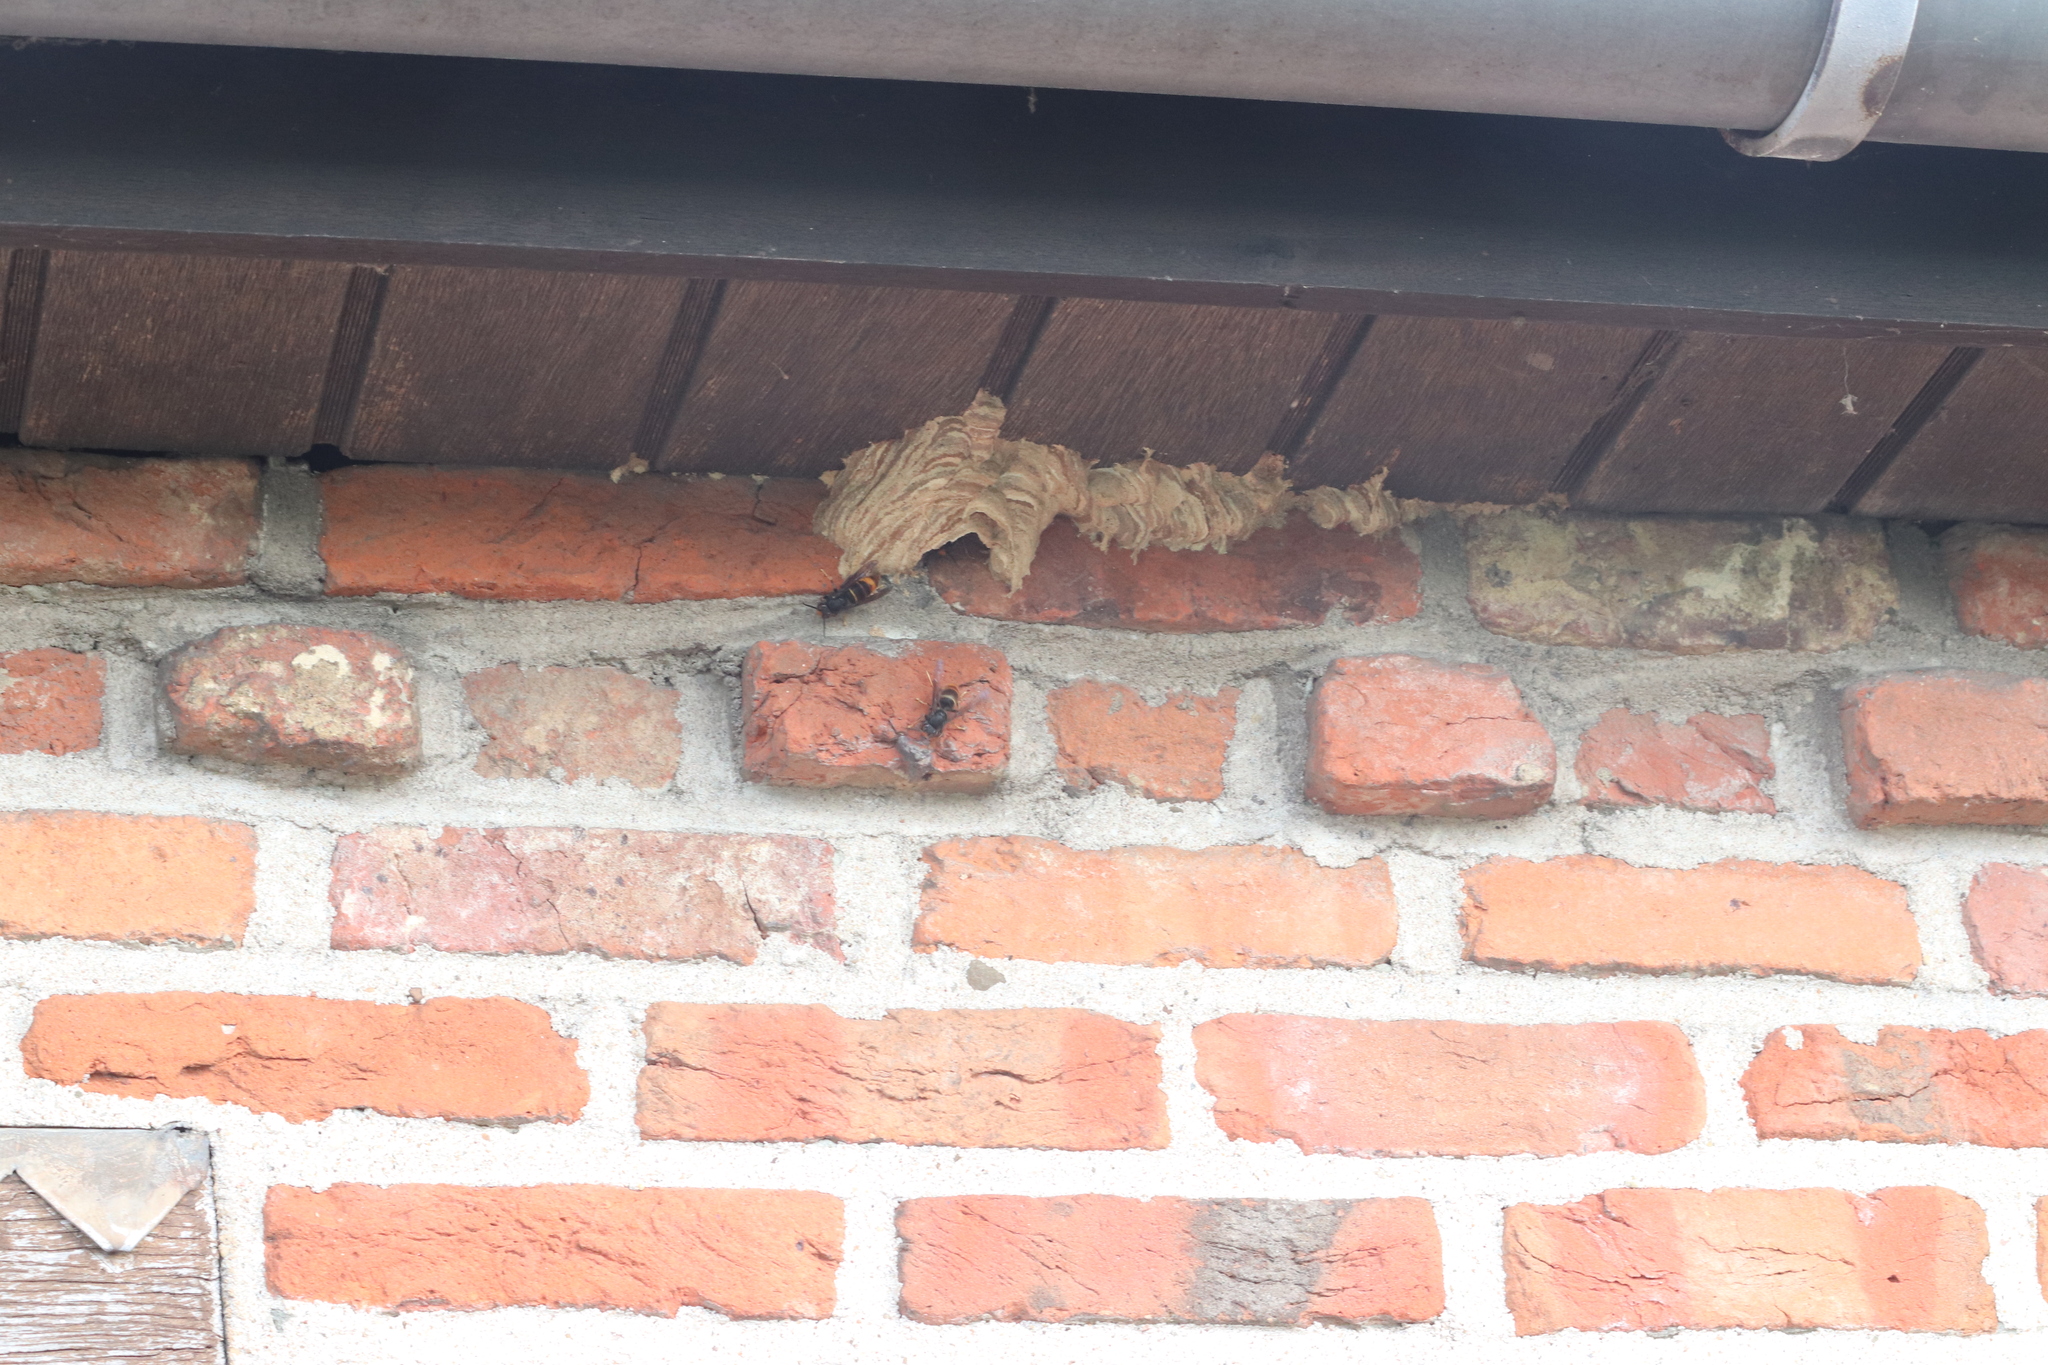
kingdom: Animalia
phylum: Arthropoda
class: Insecta
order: Hymenoptera
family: Vespidae
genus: Vespa
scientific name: Vespa velutina
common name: Asian hornet
